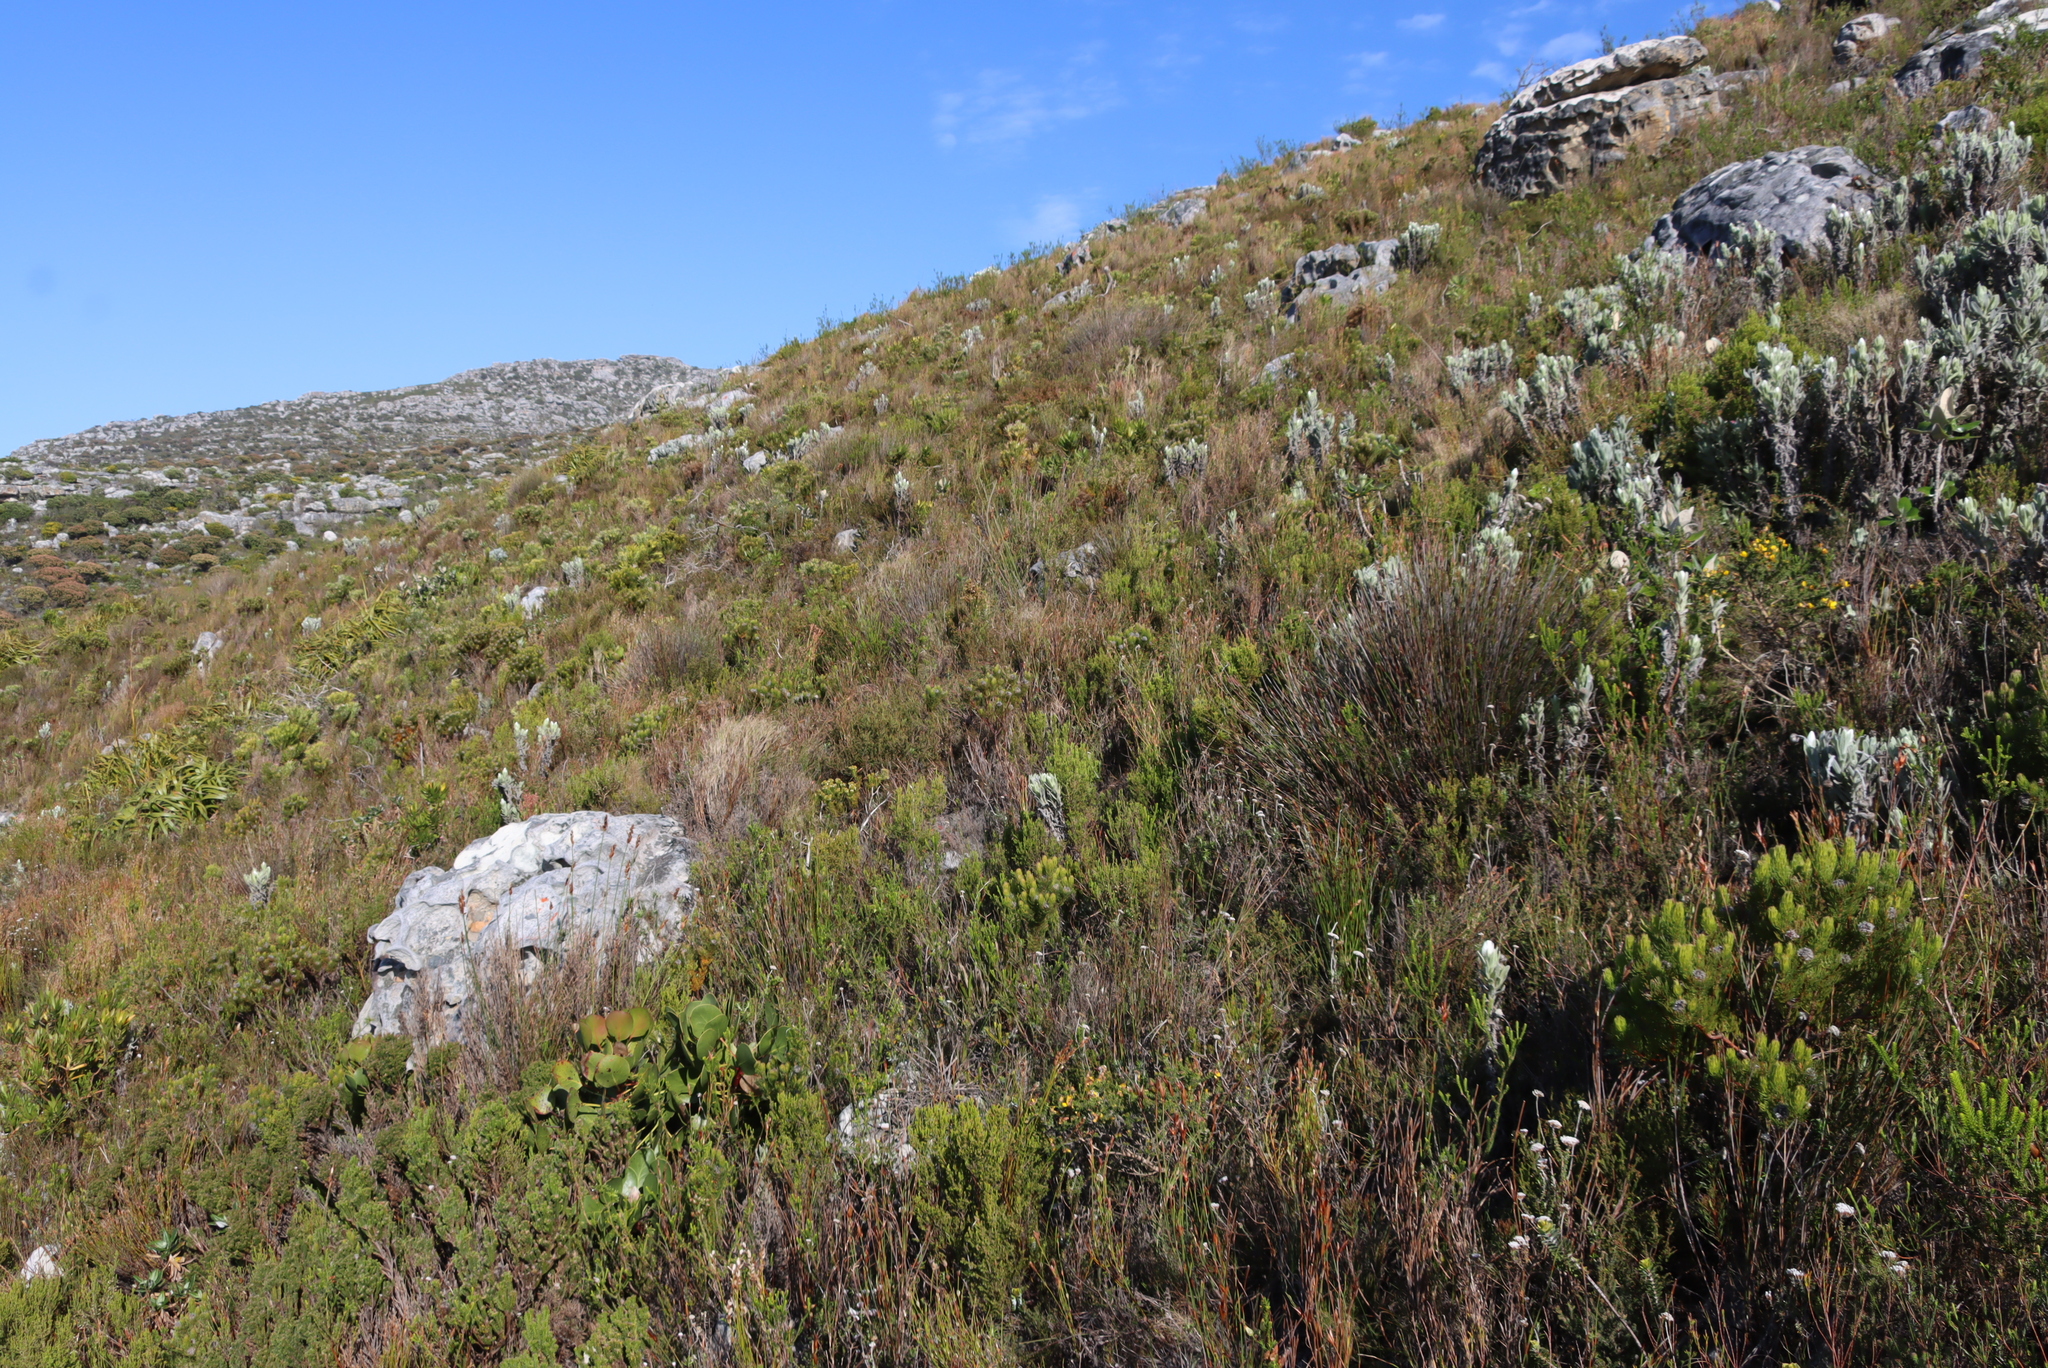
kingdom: Plantae
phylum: Tracheophyta
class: Magnoliopsida
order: Proteales
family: Proteaceae
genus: Serruria
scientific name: Serruria villosa
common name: Golden spiderhead
